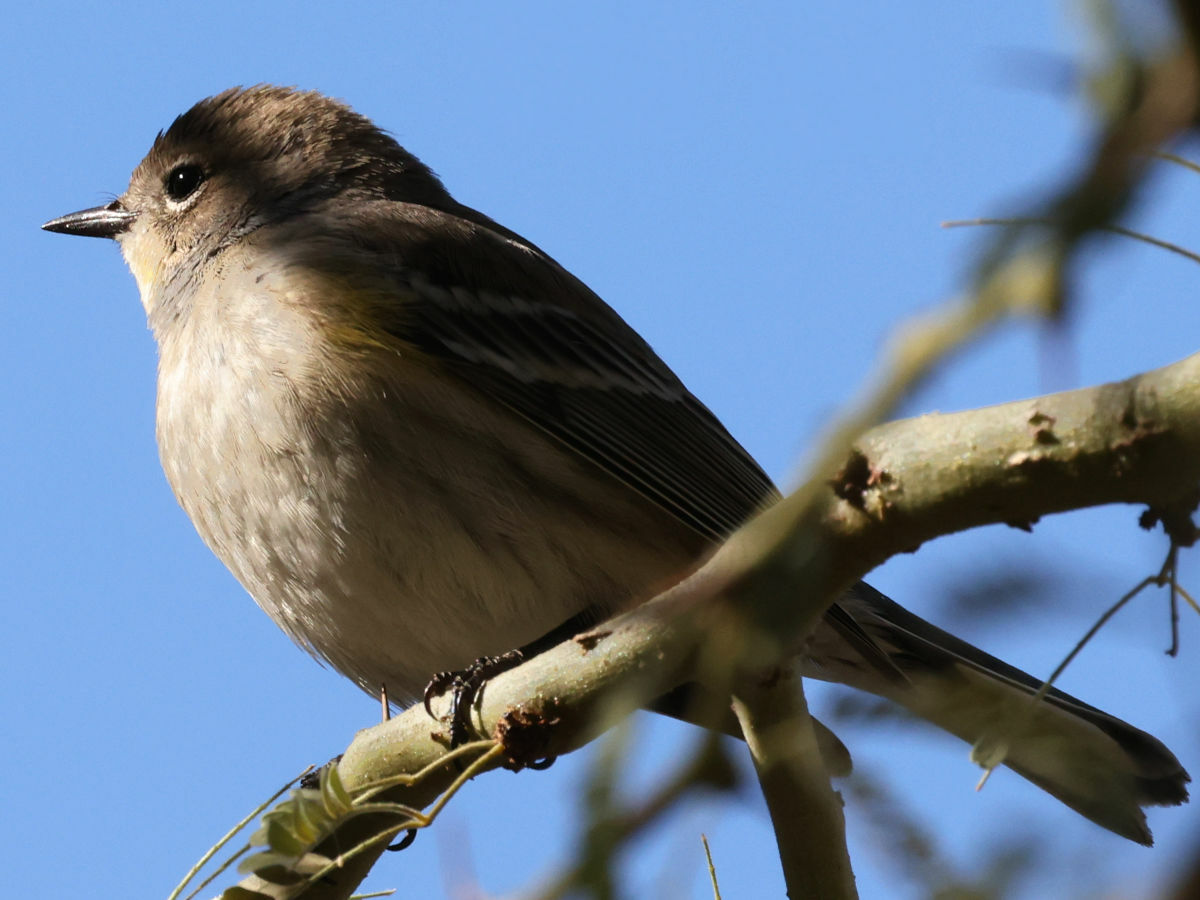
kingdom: Animalia
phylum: Chordata
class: Aves
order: Passeriformes
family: Parulidae
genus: Setophaga
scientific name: Setophaga coronata
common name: Myrtle warbler
